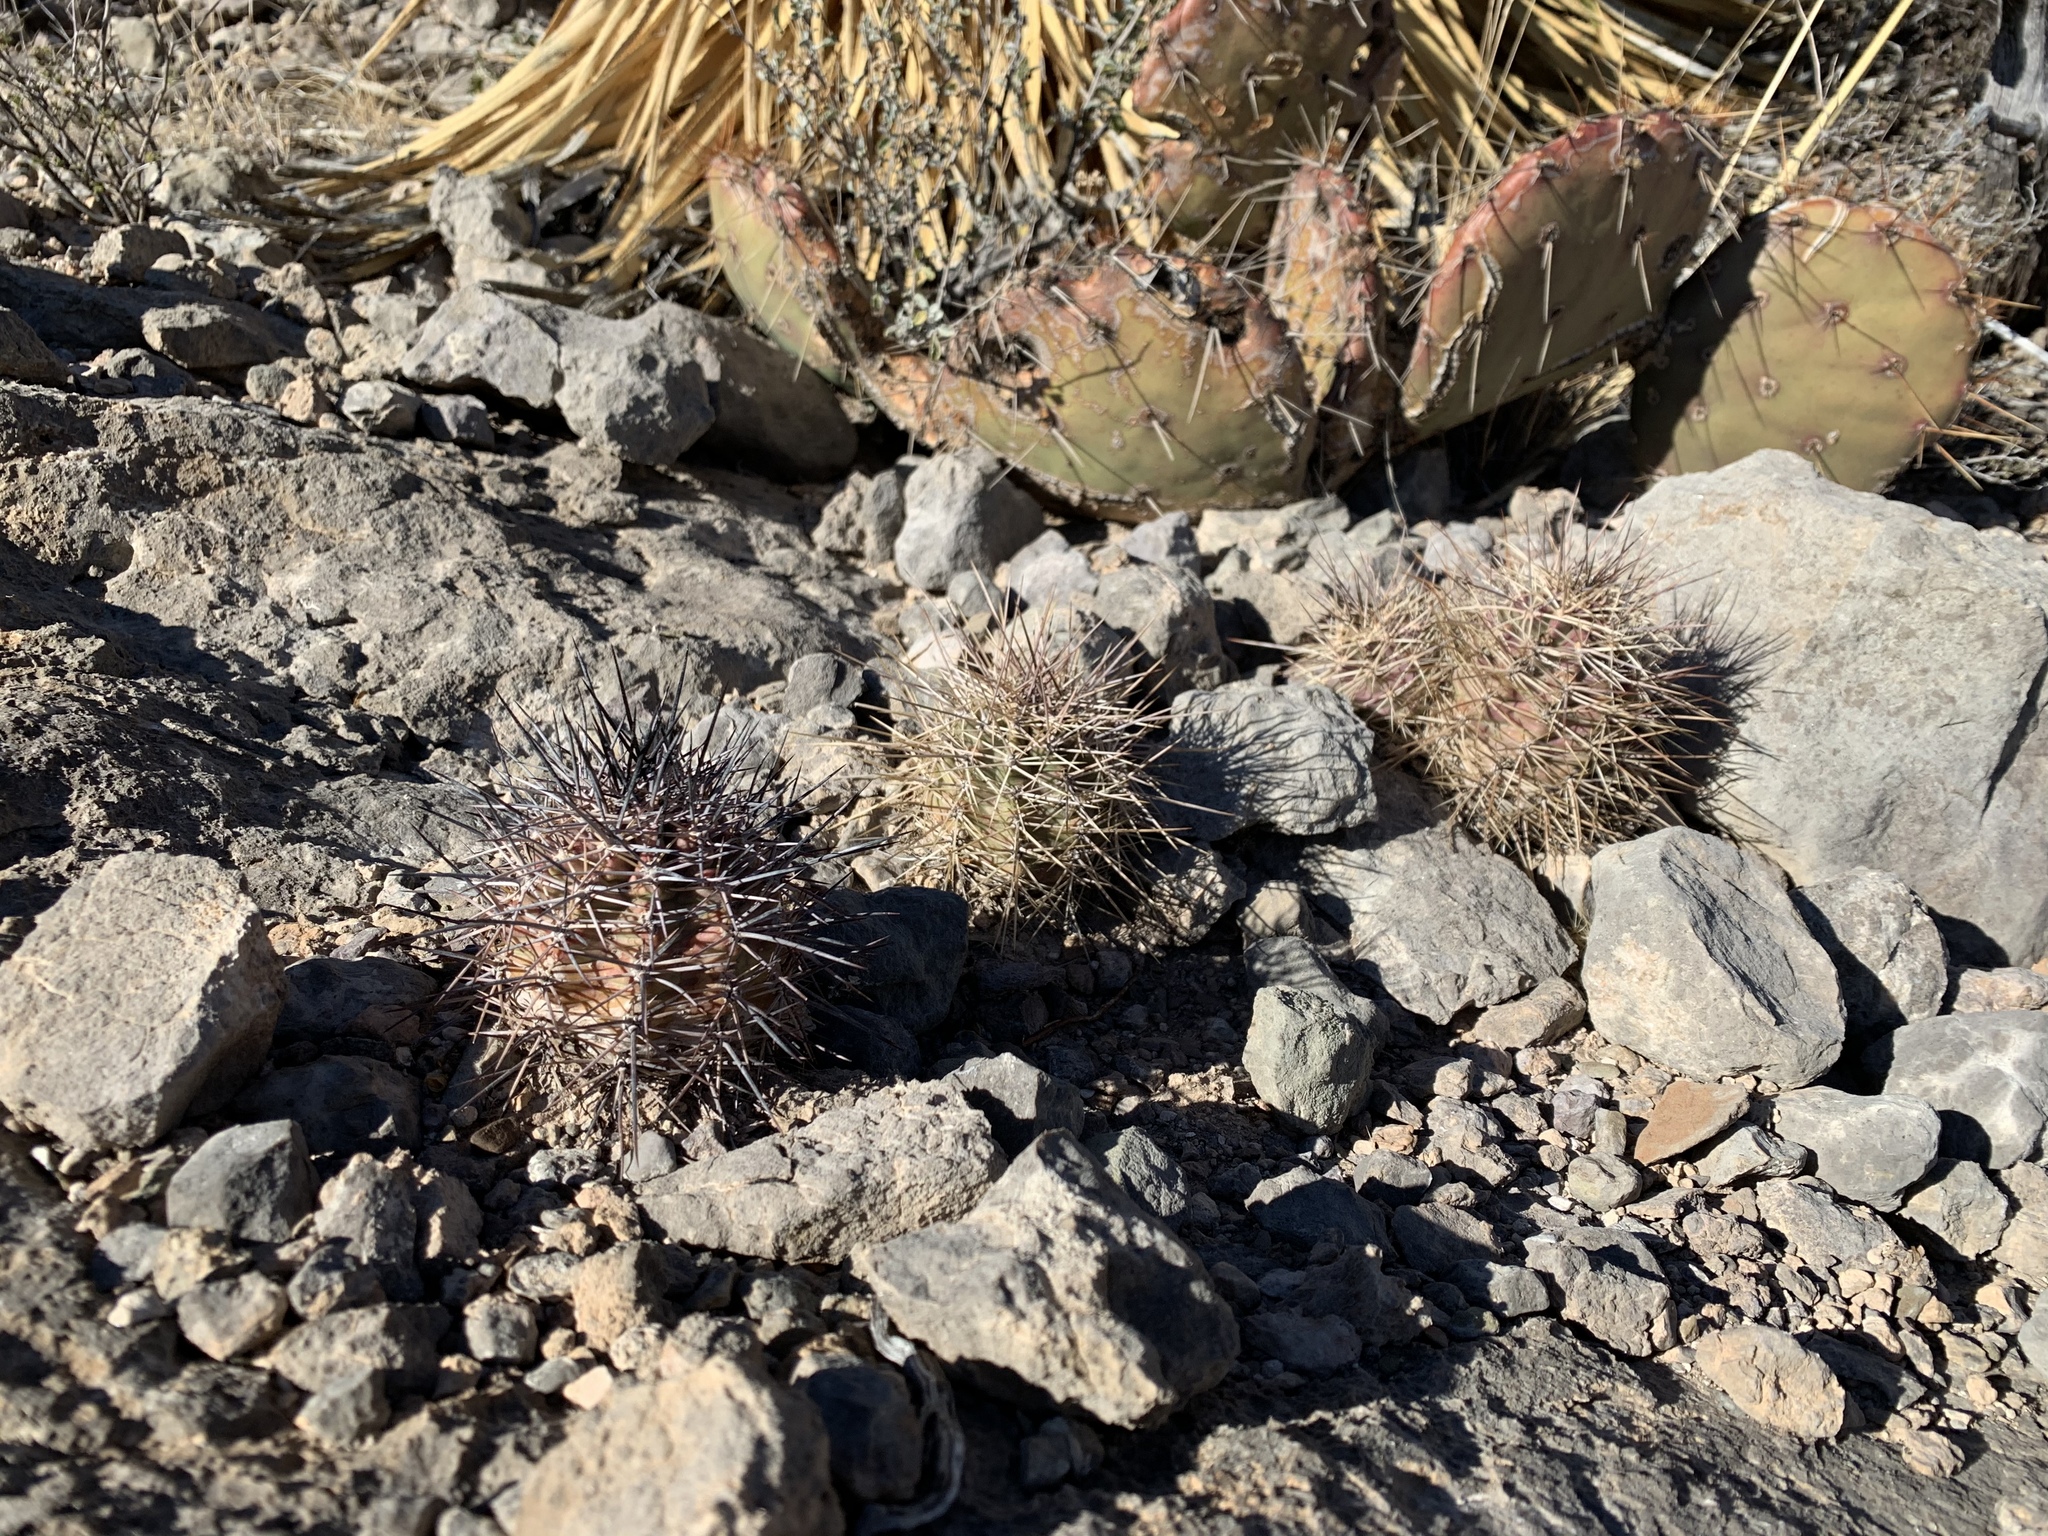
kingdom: Plantae
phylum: Tracheophyta
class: Magnoliopsida
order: Caryophyllales
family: Cactaceae
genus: Echinocereus
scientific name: Echinocereus coccineus
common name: Scarlet hedgehog cactus
